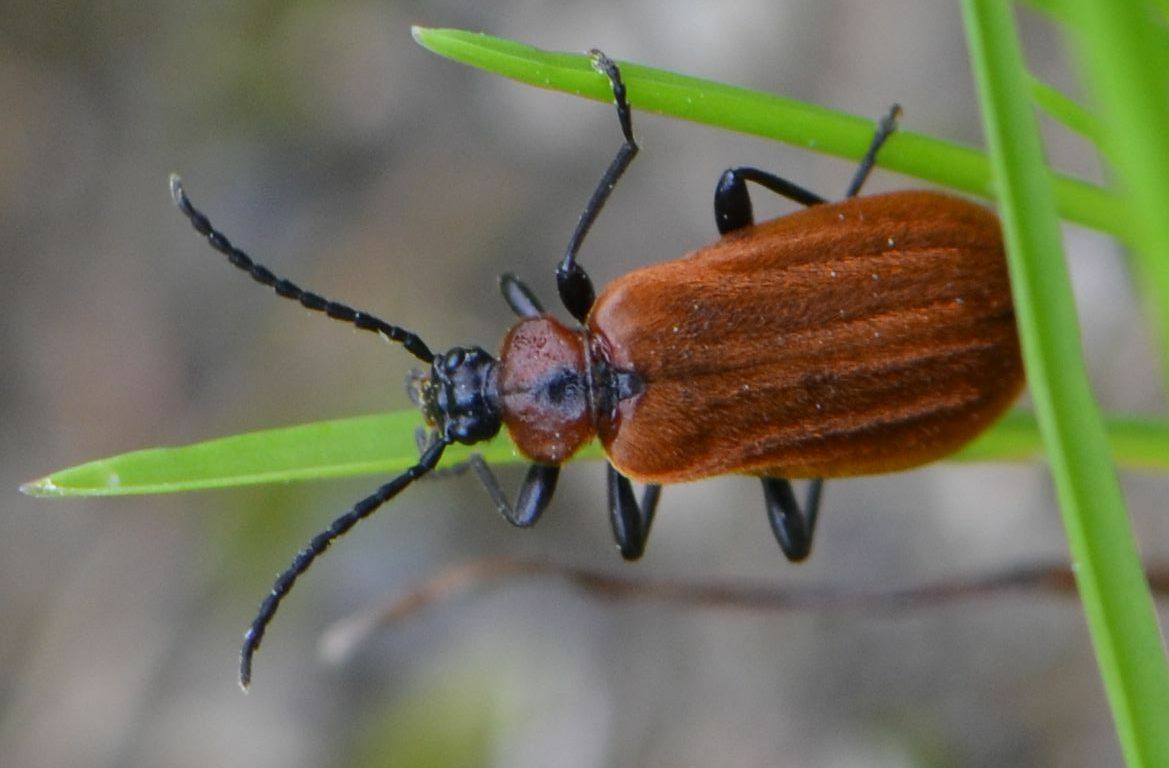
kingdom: Animalia
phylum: Arthropoda
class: Insecta
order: Coleoptera
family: Pyrochroidae
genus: Schizotus
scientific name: Schizotus pectinicornis
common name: Scarce cardinal beetle
